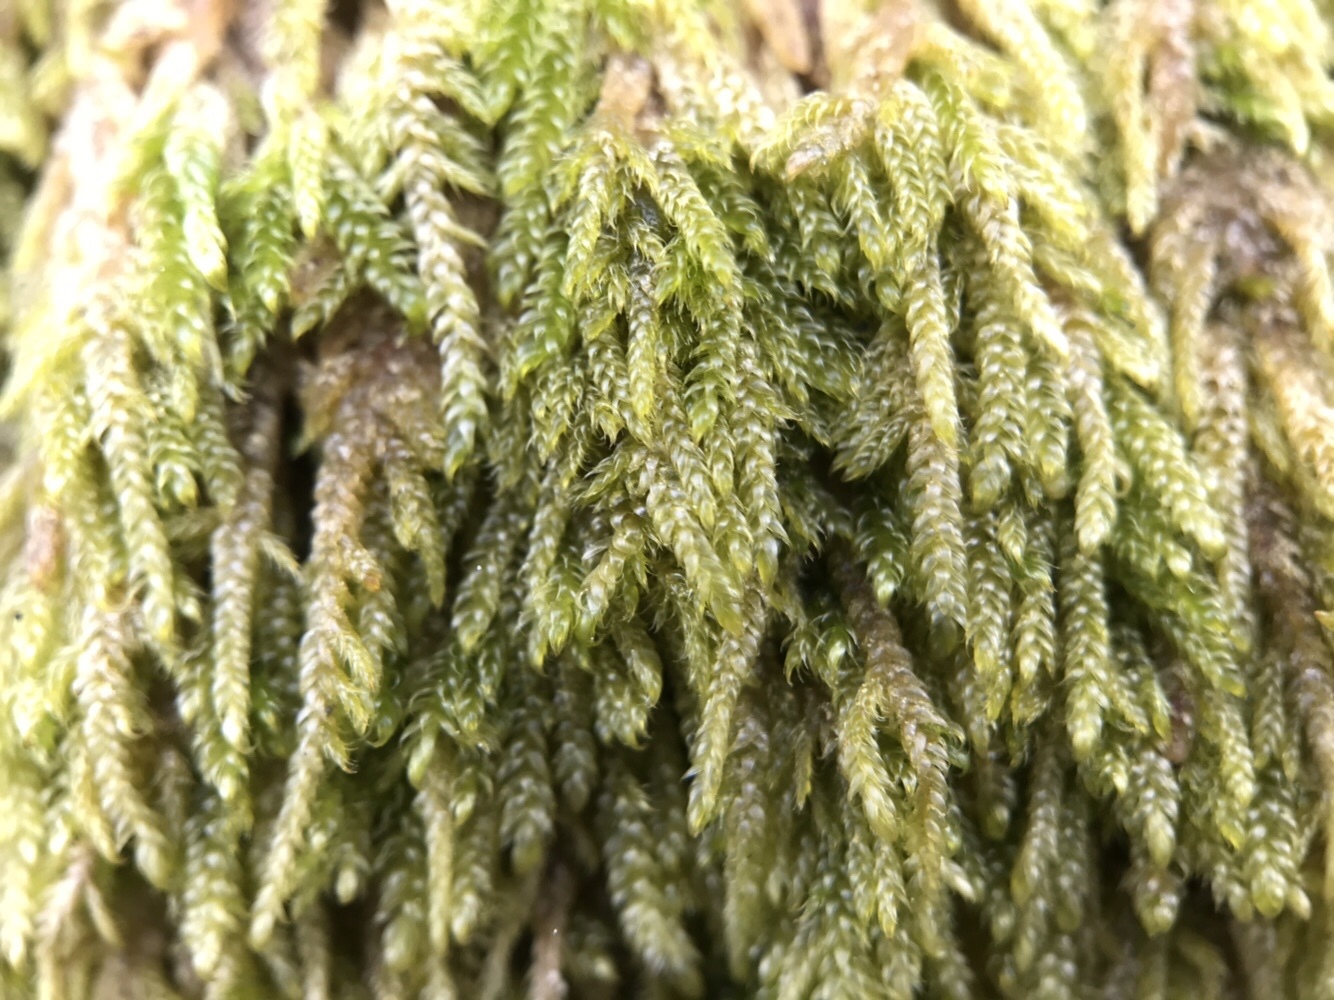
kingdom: Plantae
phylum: Bryophyta
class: Bryopsida
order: Hypnales
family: Hypnaceae
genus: Hypnum
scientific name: Hypnum andoi
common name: Ando's plait moss
